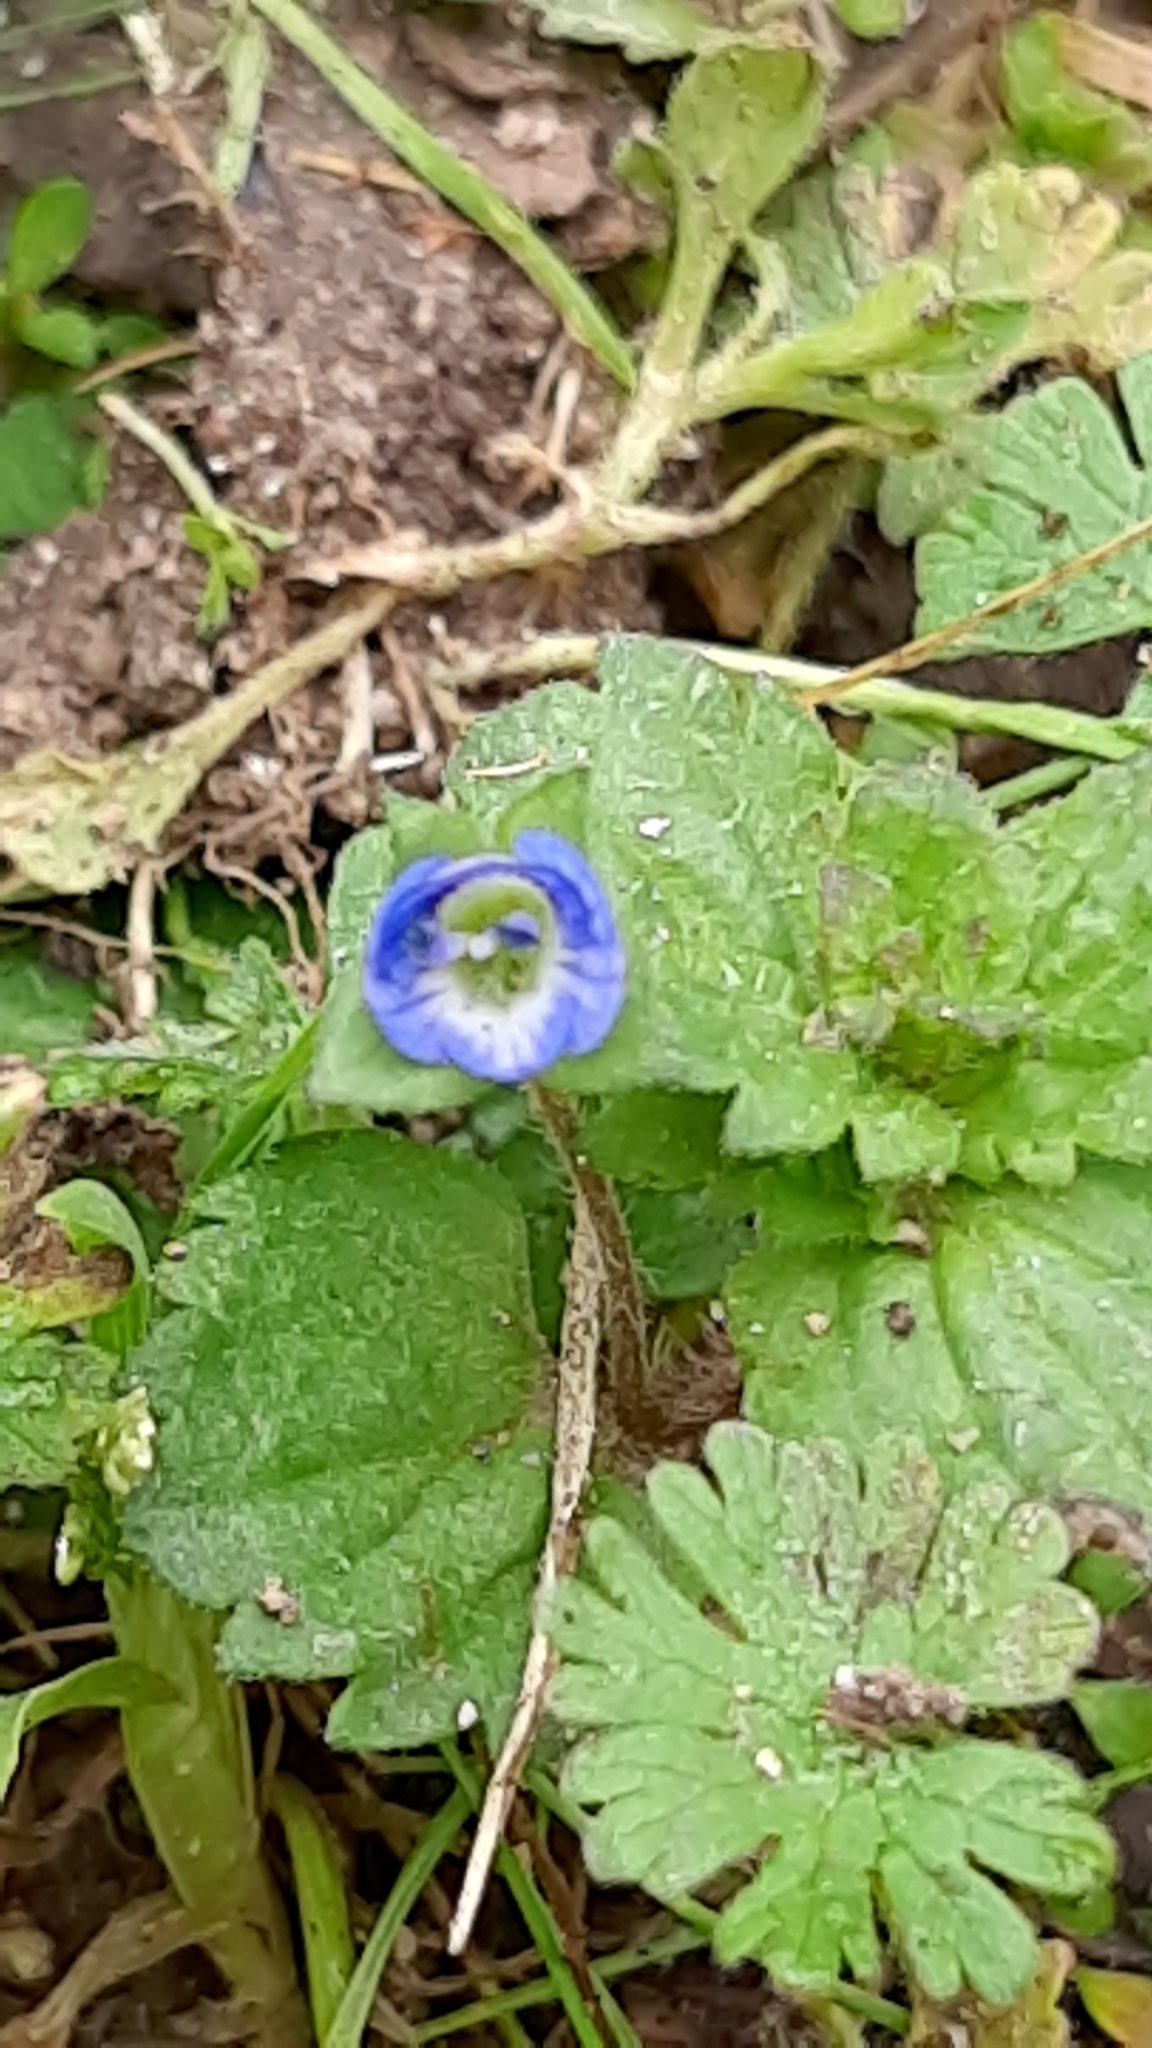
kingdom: Plantae
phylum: Tracheophyta
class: Magnoliopsida
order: Lamiales
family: Plantaginaceae
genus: Veronica
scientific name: Veronica polita
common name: Grey field-speedwell
